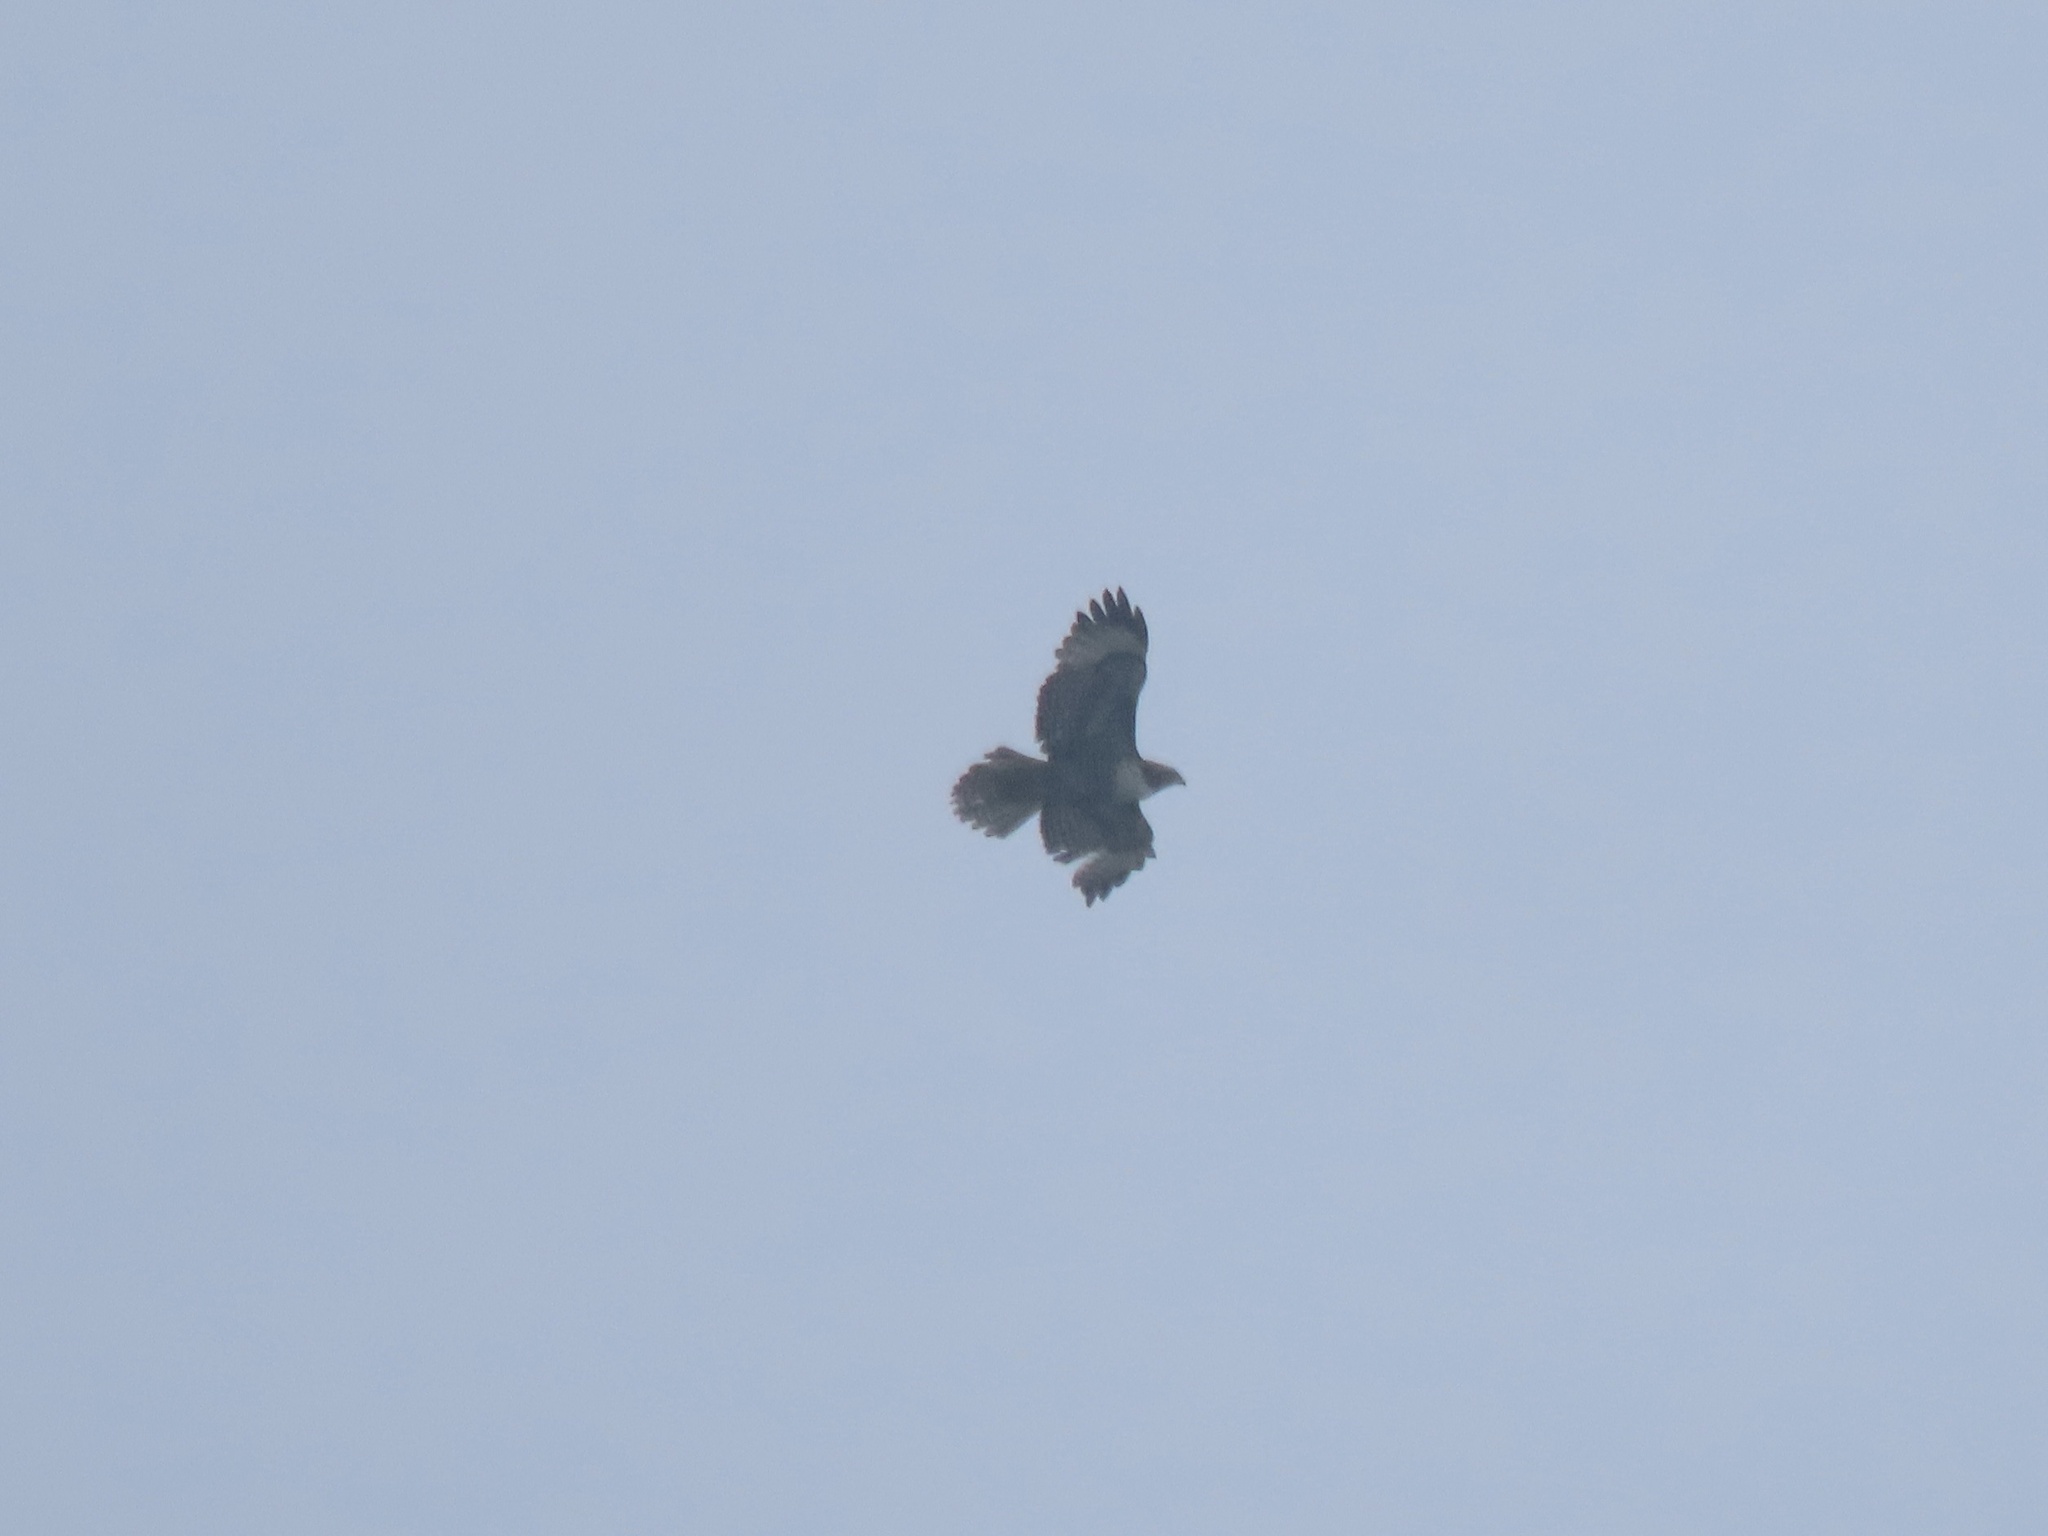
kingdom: Animalia
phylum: Chordata
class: Aves
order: Accipitriformes
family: Accipitridae
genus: Buteo
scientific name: Buteo jamaicensis
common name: Red-tailed hawk
